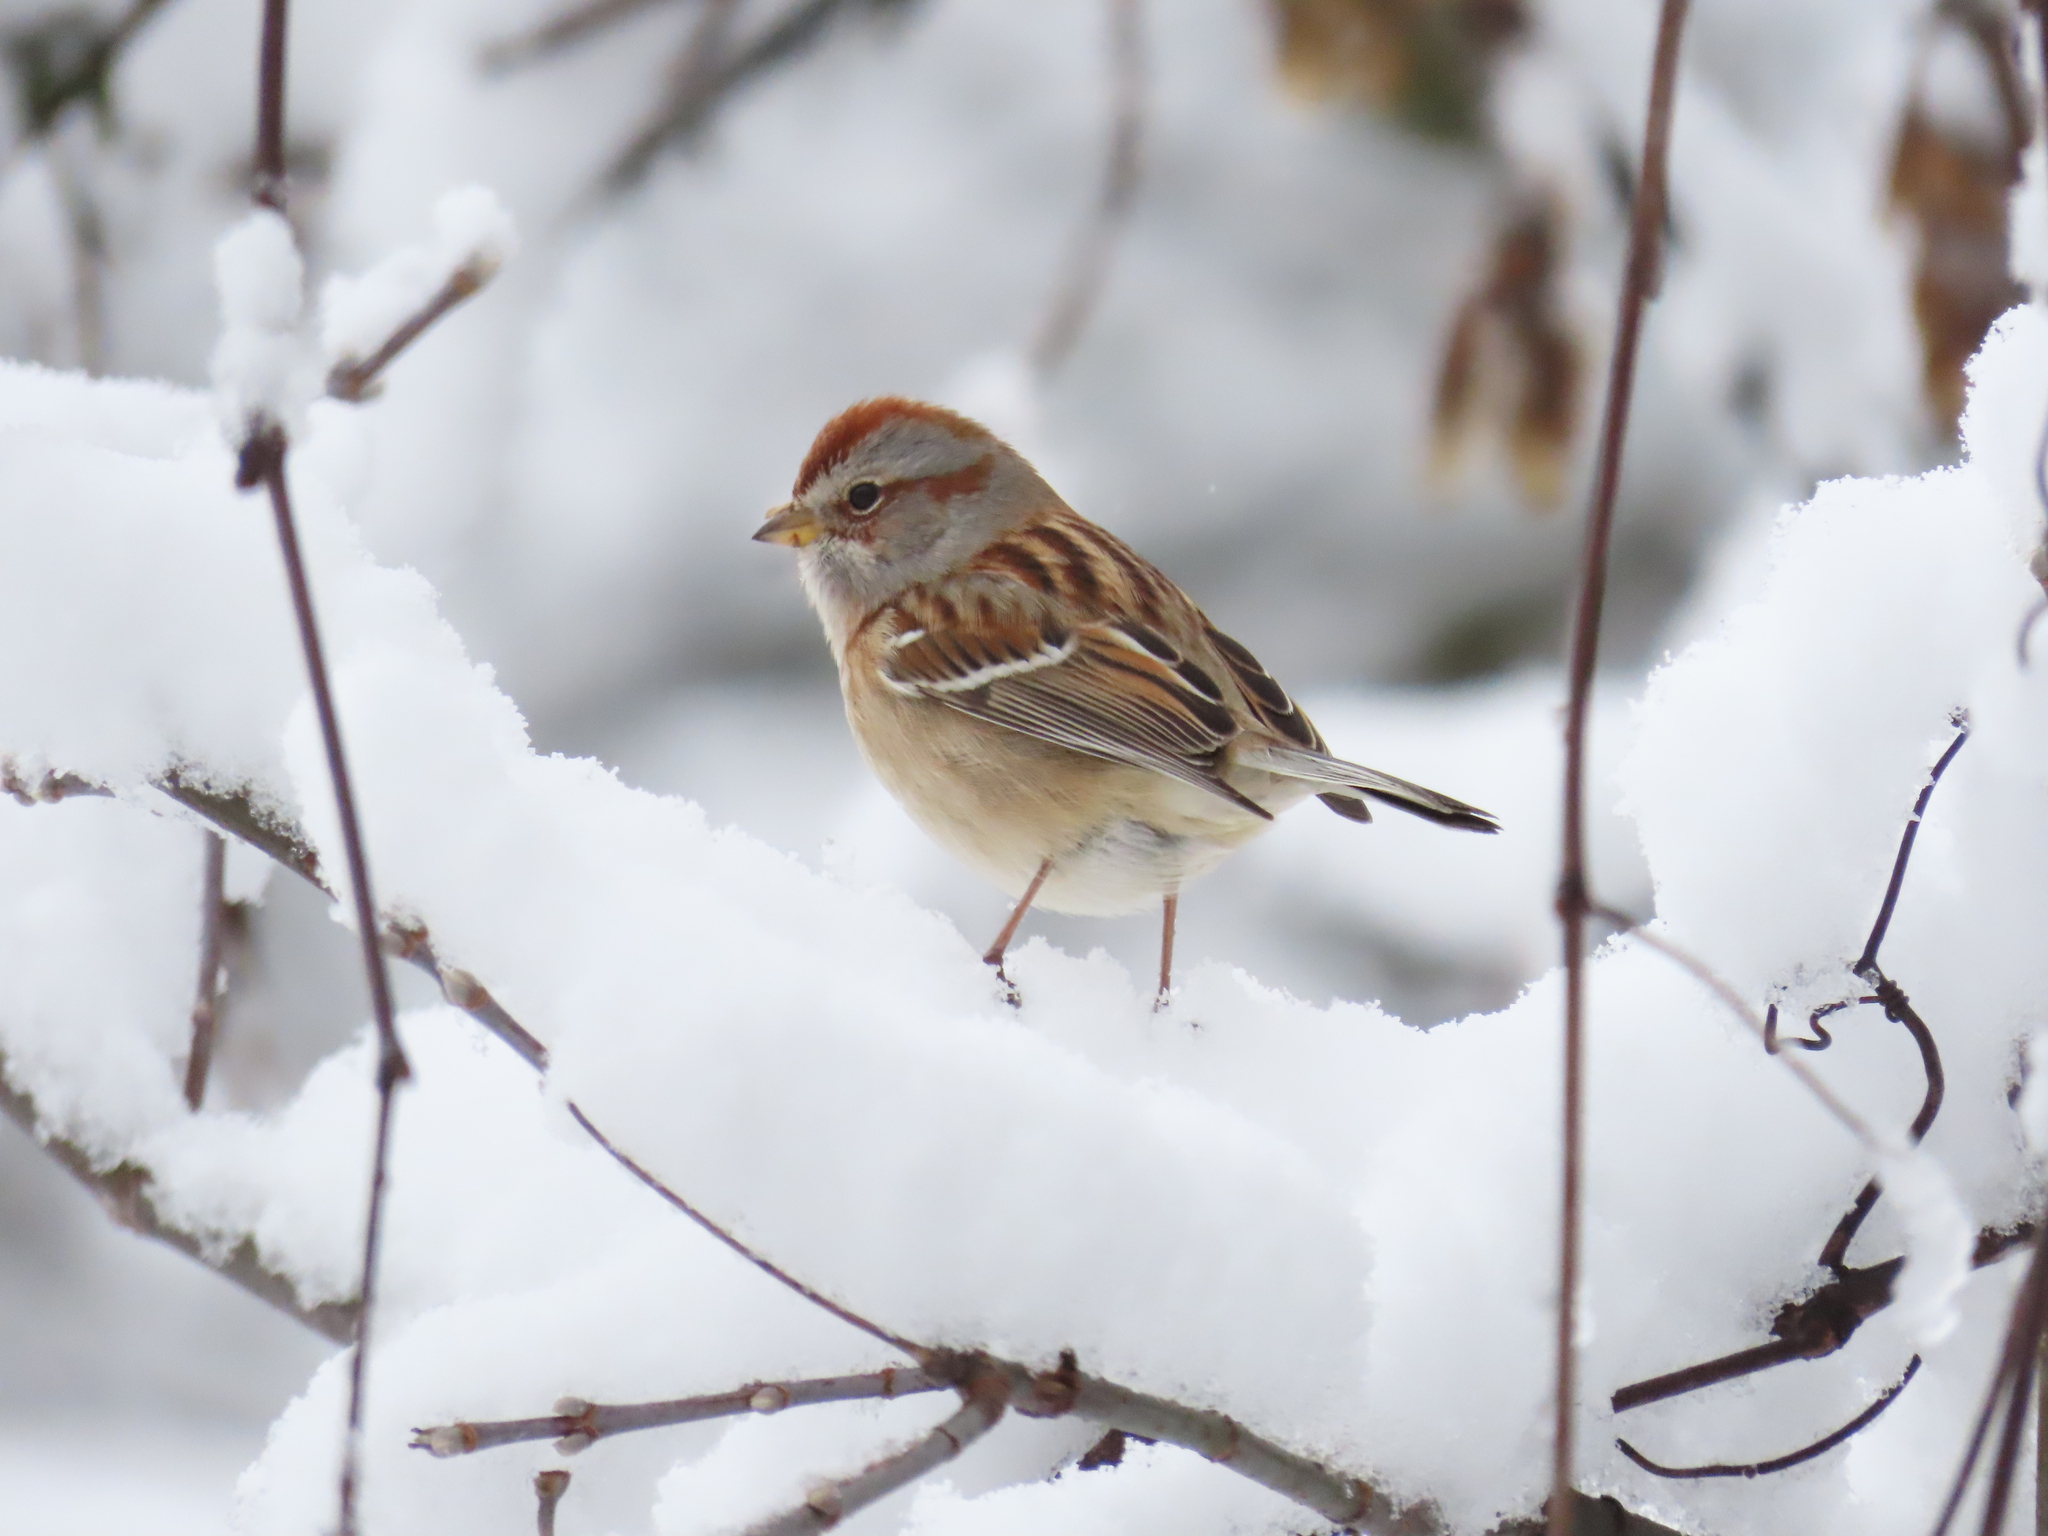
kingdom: Animalia
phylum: Chordata
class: Aves
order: Passeriformes
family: Passerellidae
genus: Spizelloides
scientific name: Spizelloides arborea
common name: American tree sparrow
